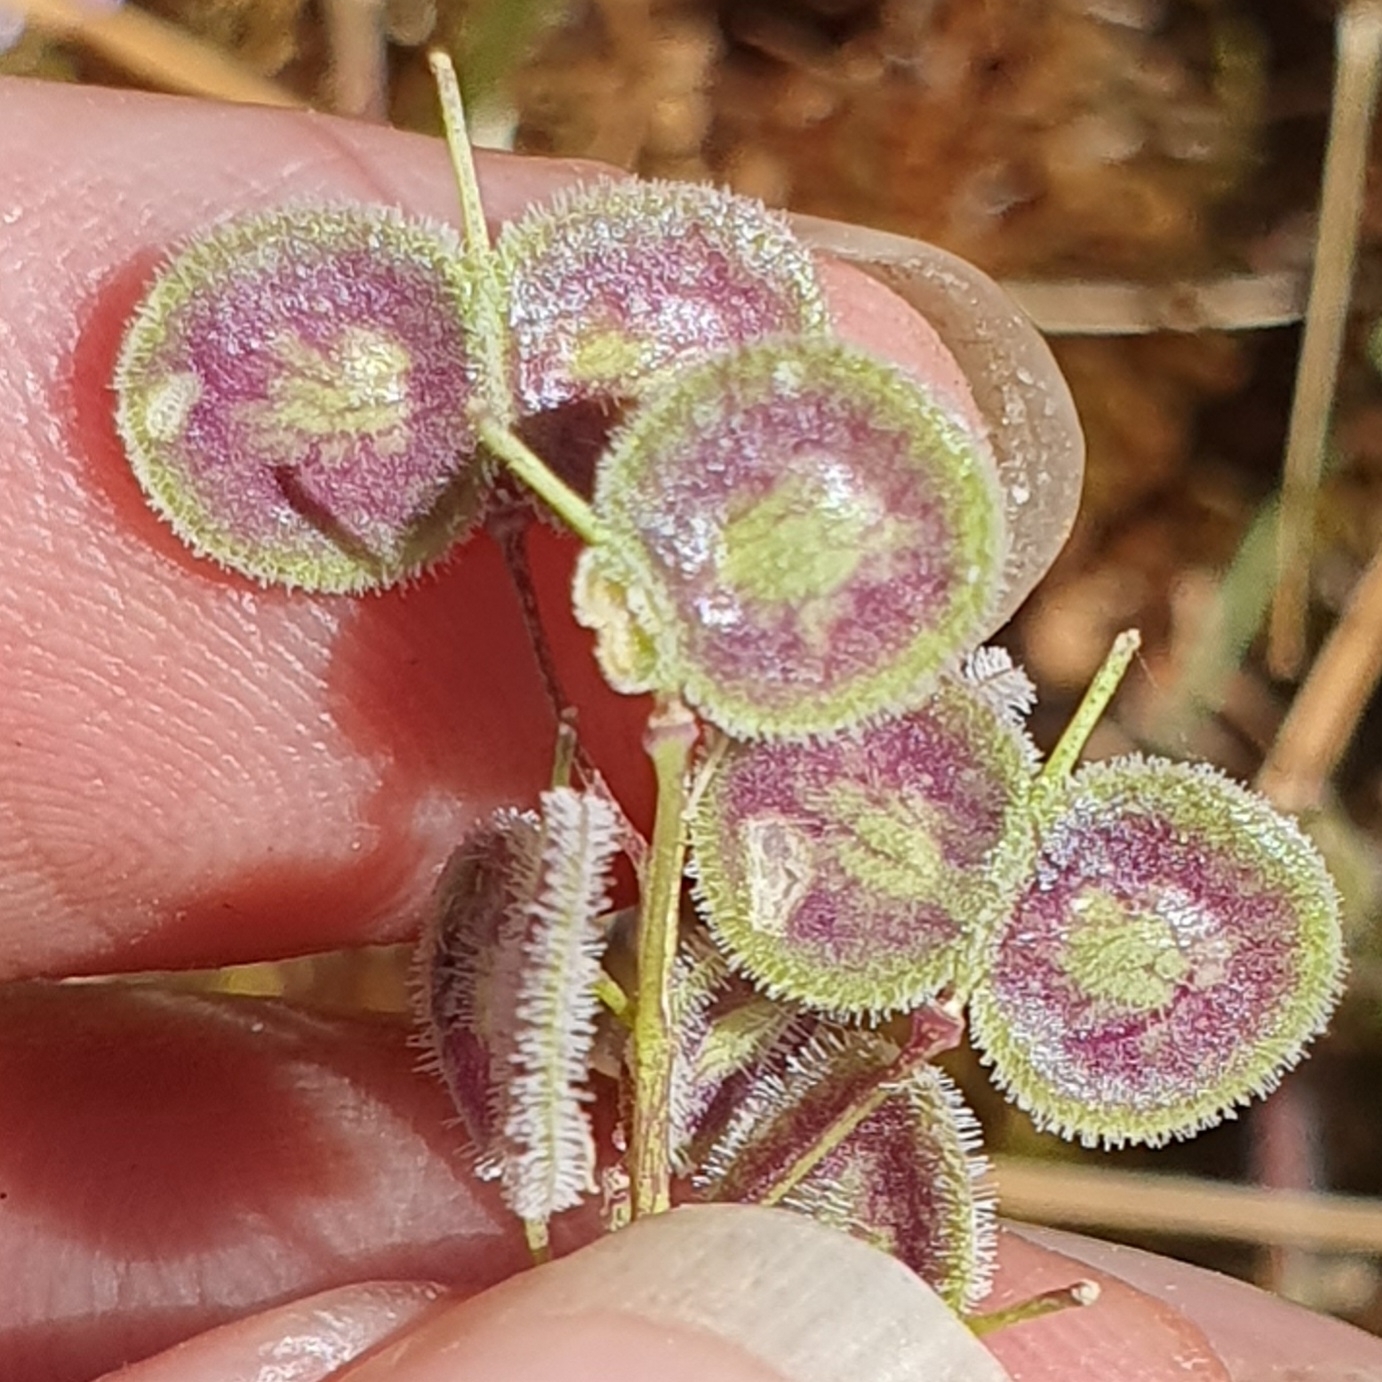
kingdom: Plantae
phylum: Tracheophyta
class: Magnoliopsida
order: Brassicales
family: Brassicaceae
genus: Biscutella
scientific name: Biscutella didyma
